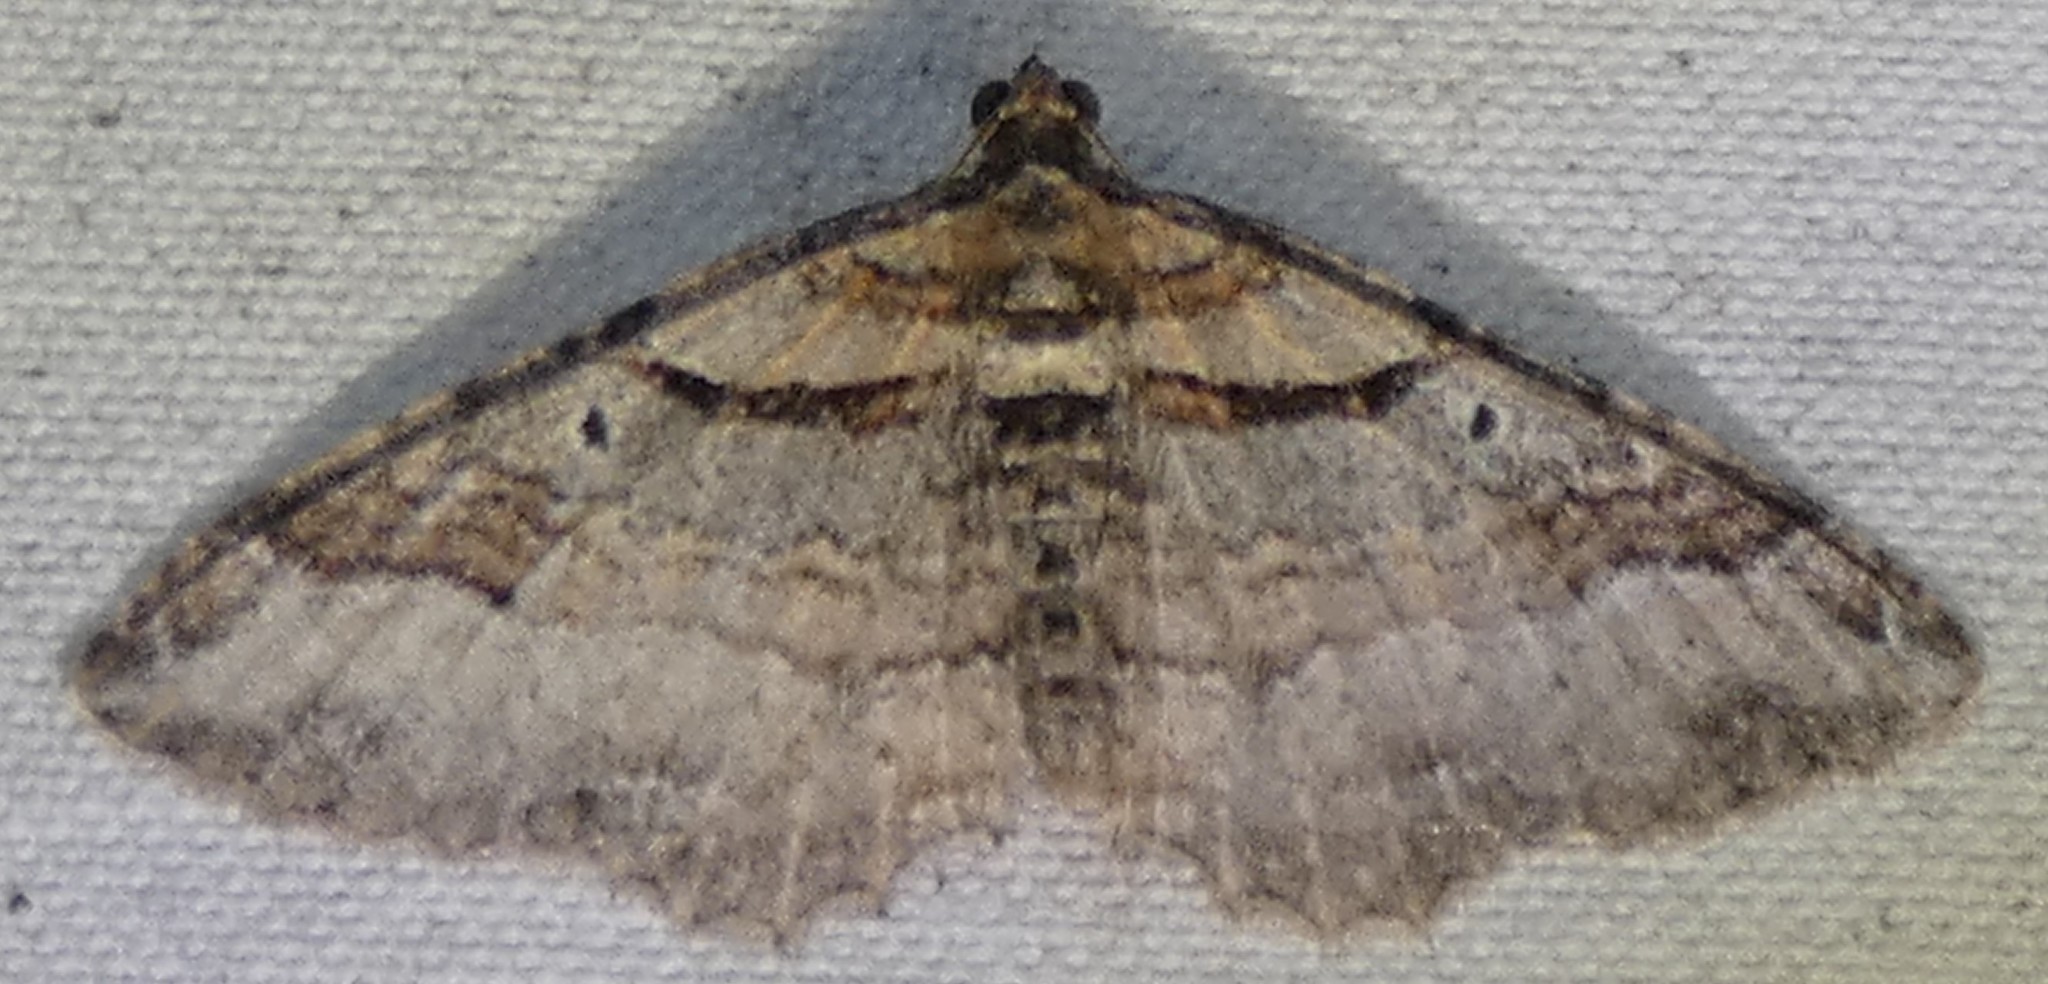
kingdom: Animalia
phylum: Arthropoda
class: Insecta
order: Lepidoptera
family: Geometridae
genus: Costaconvexa
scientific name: Costaconvexa centrostrigaria
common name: Bent-line carpet
